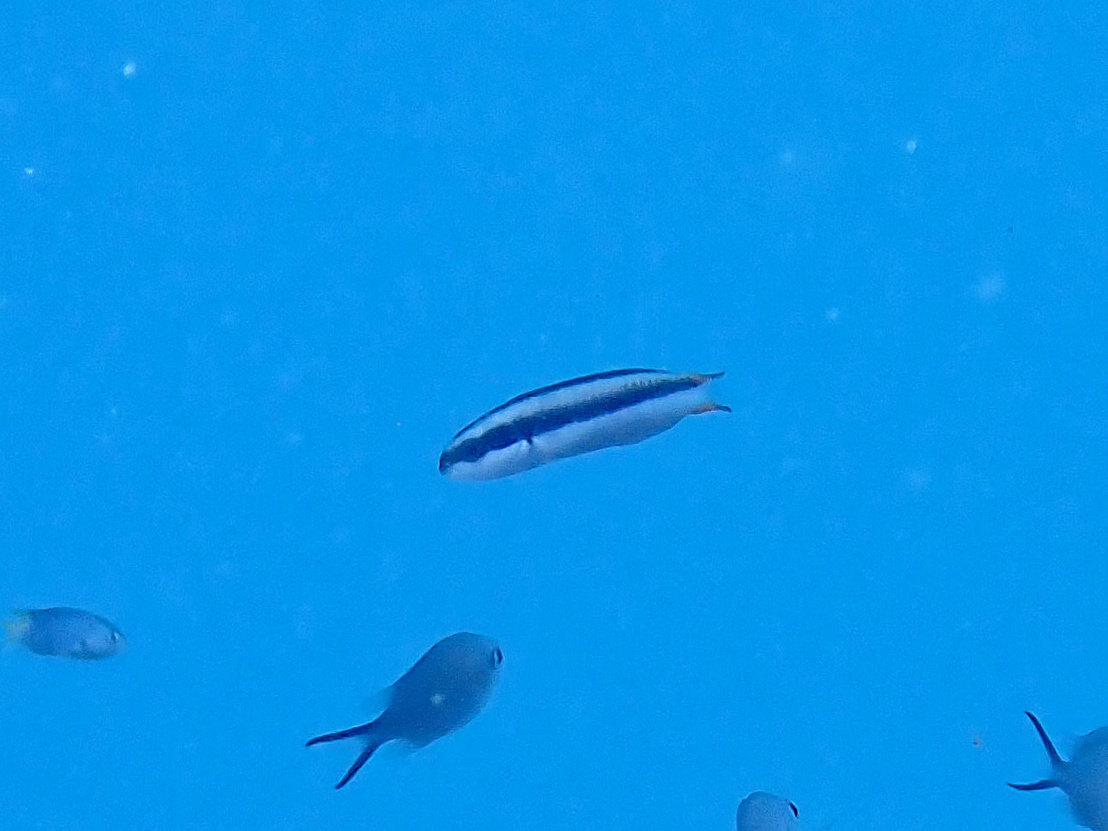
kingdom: Animalia
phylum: Chordata
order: Perciformes
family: Labridae
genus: Thalassoma
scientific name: Thalassoma amblycephalum
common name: Bluehead wrasse
